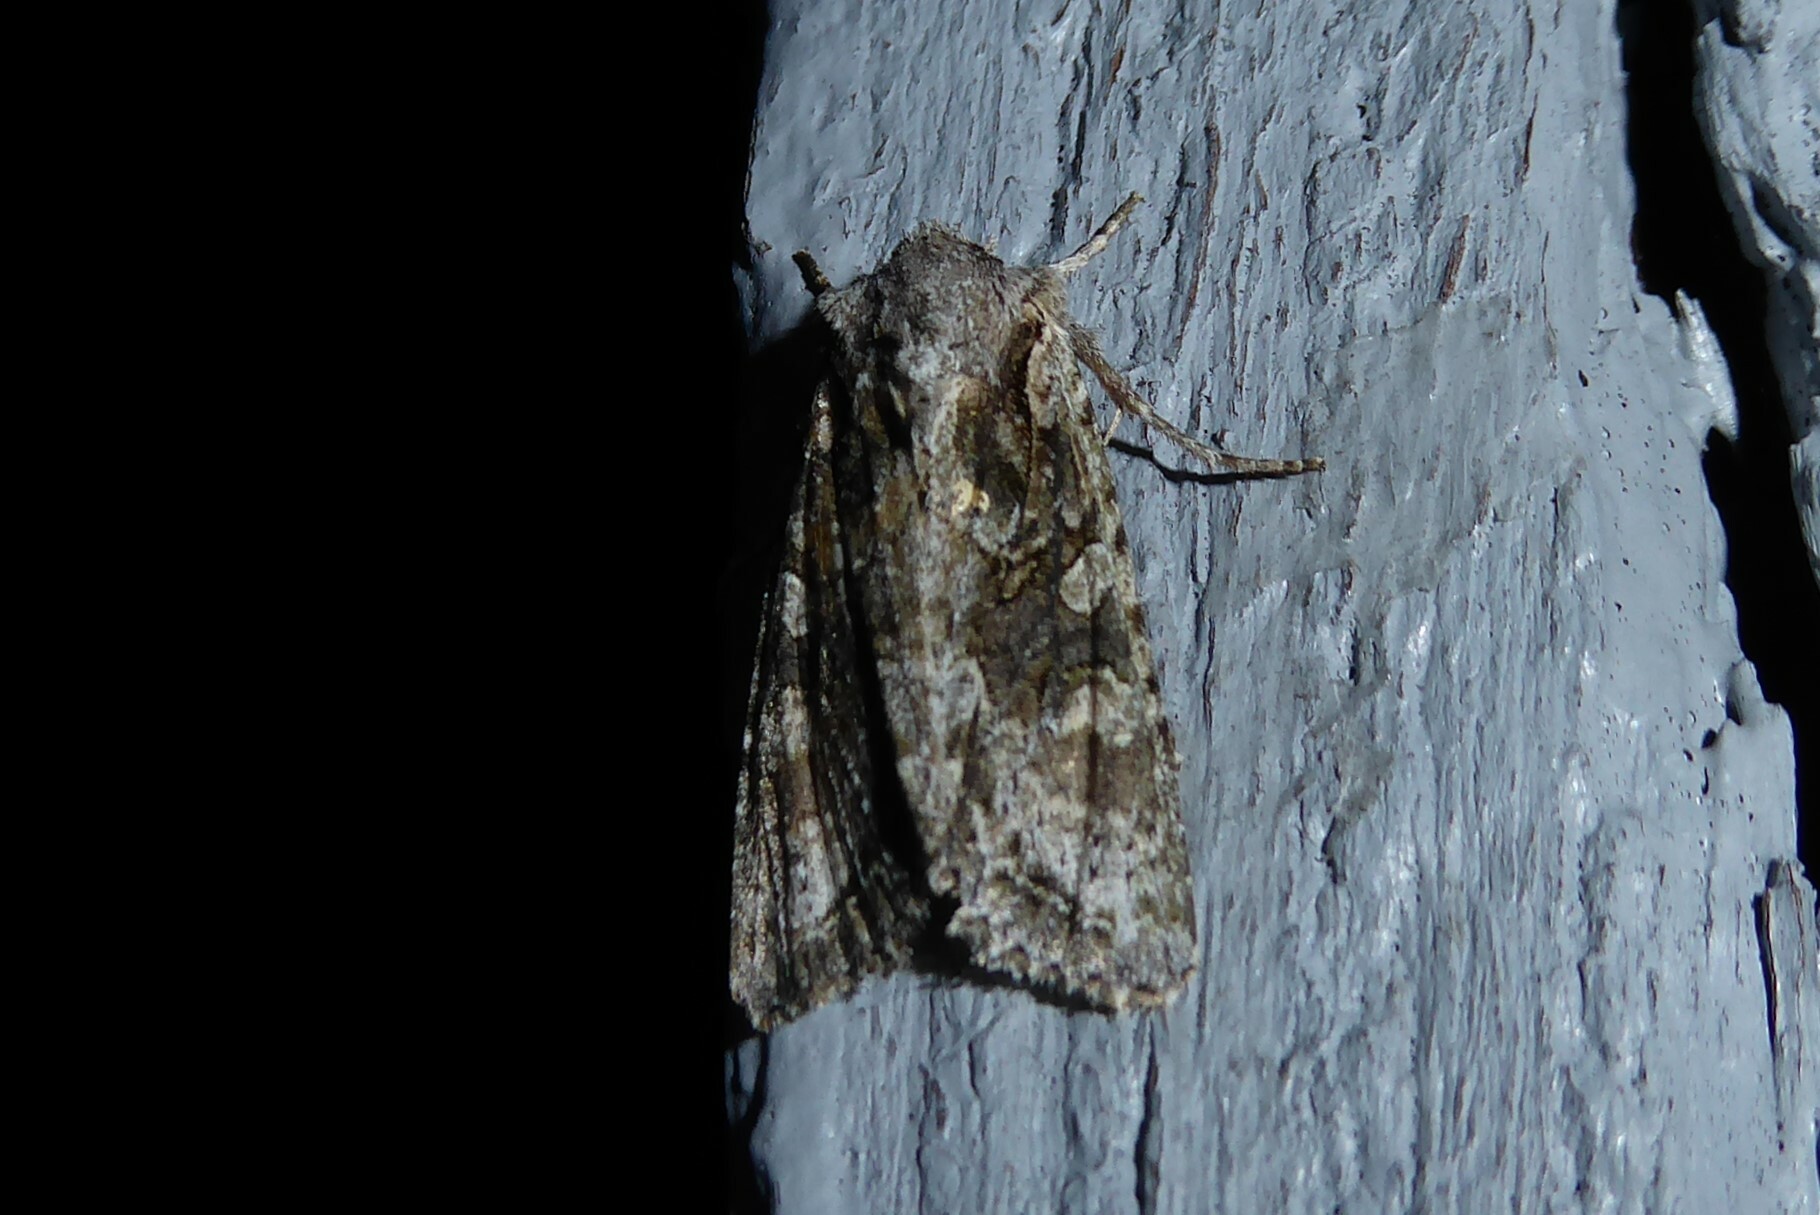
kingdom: Animalia
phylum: Arthropoda
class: Insecta
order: Lepidoptera
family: Noctuidae
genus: Ichneutica
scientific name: Ichneutica mutans
